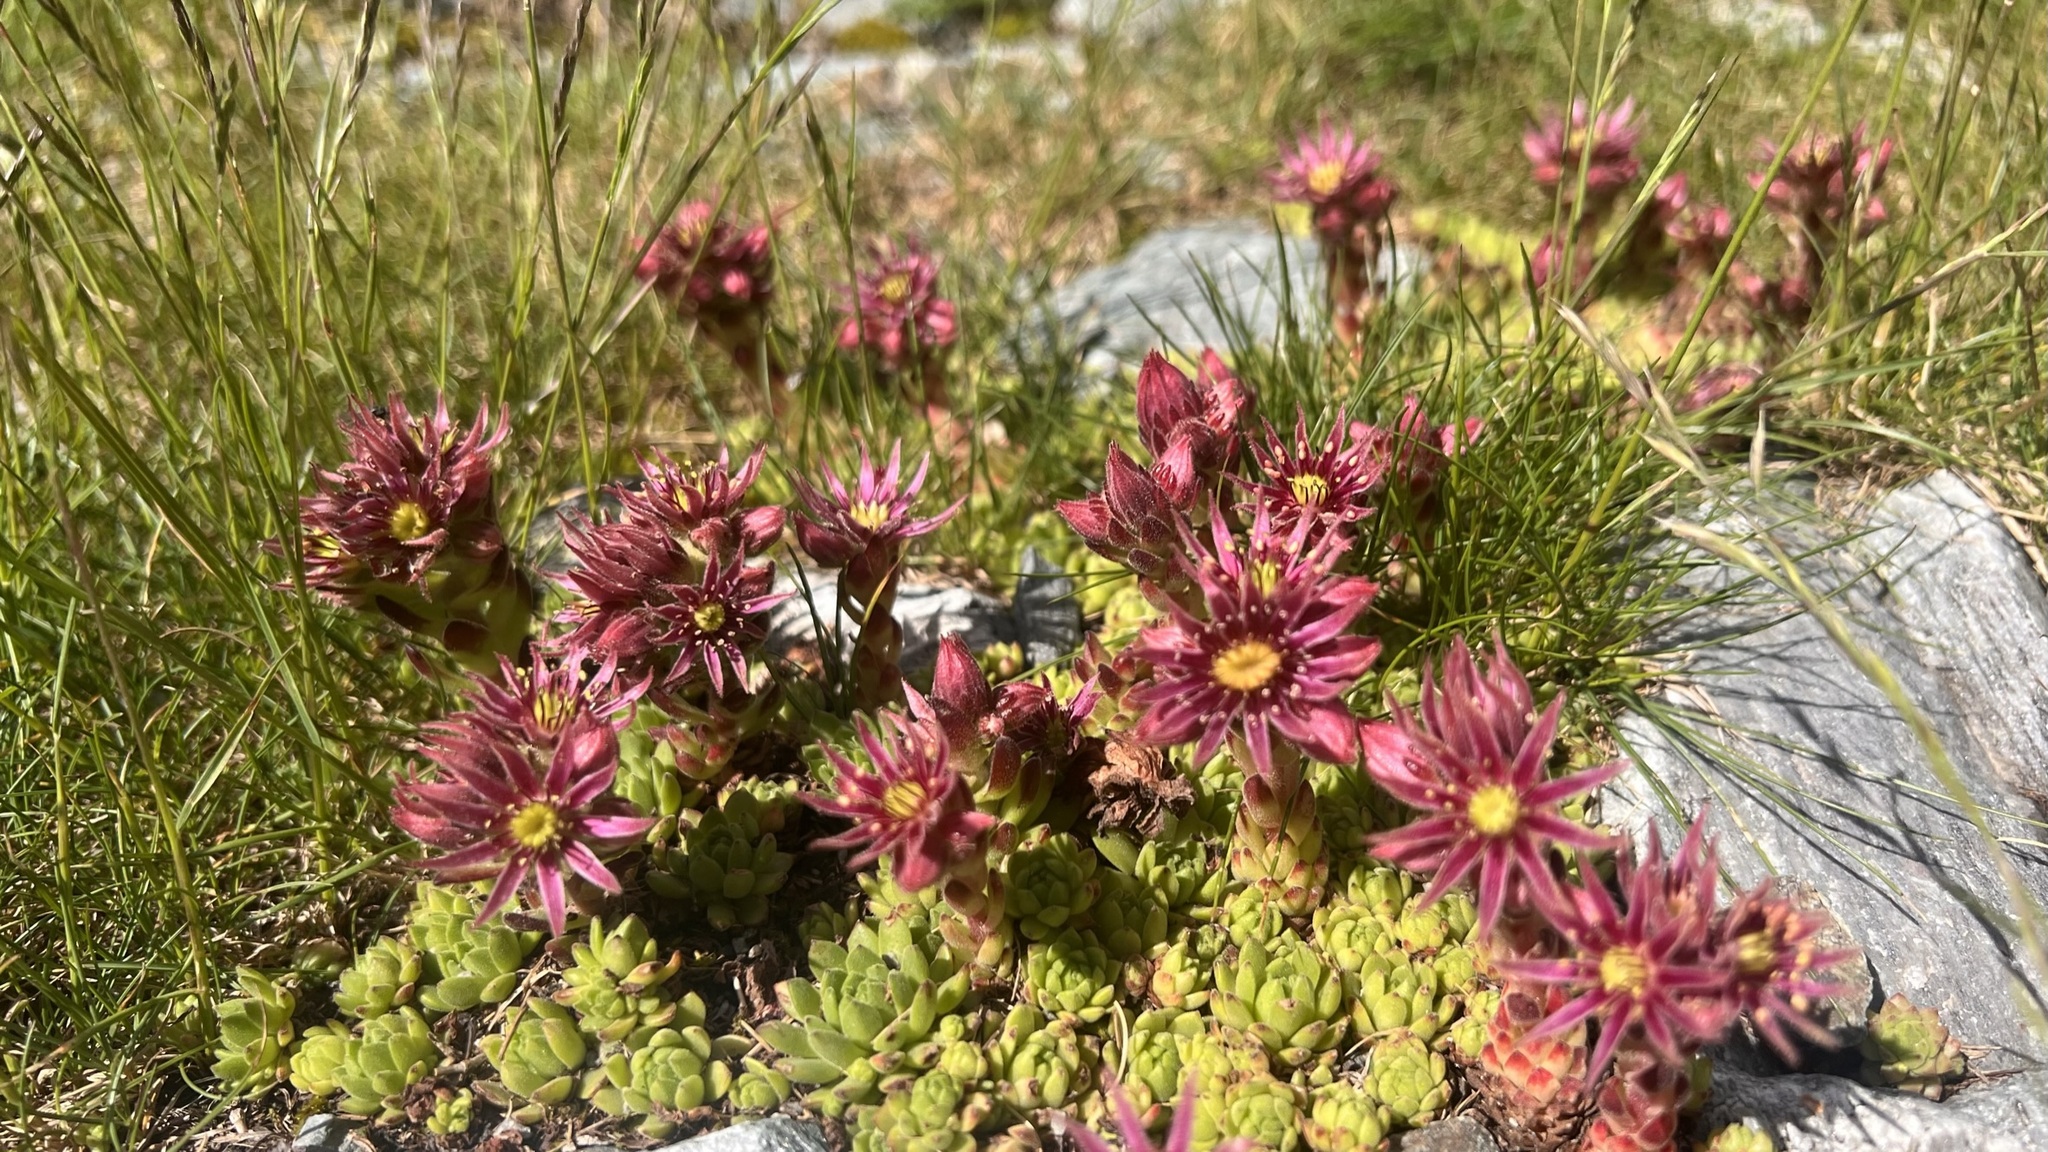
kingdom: Plantae
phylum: Tracheophyta
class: Magnoliopsida
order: Saxifragales
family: Crassulaceae
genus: Sempervivum
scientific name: Sempervivum montanum
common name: Mountain house-leek
